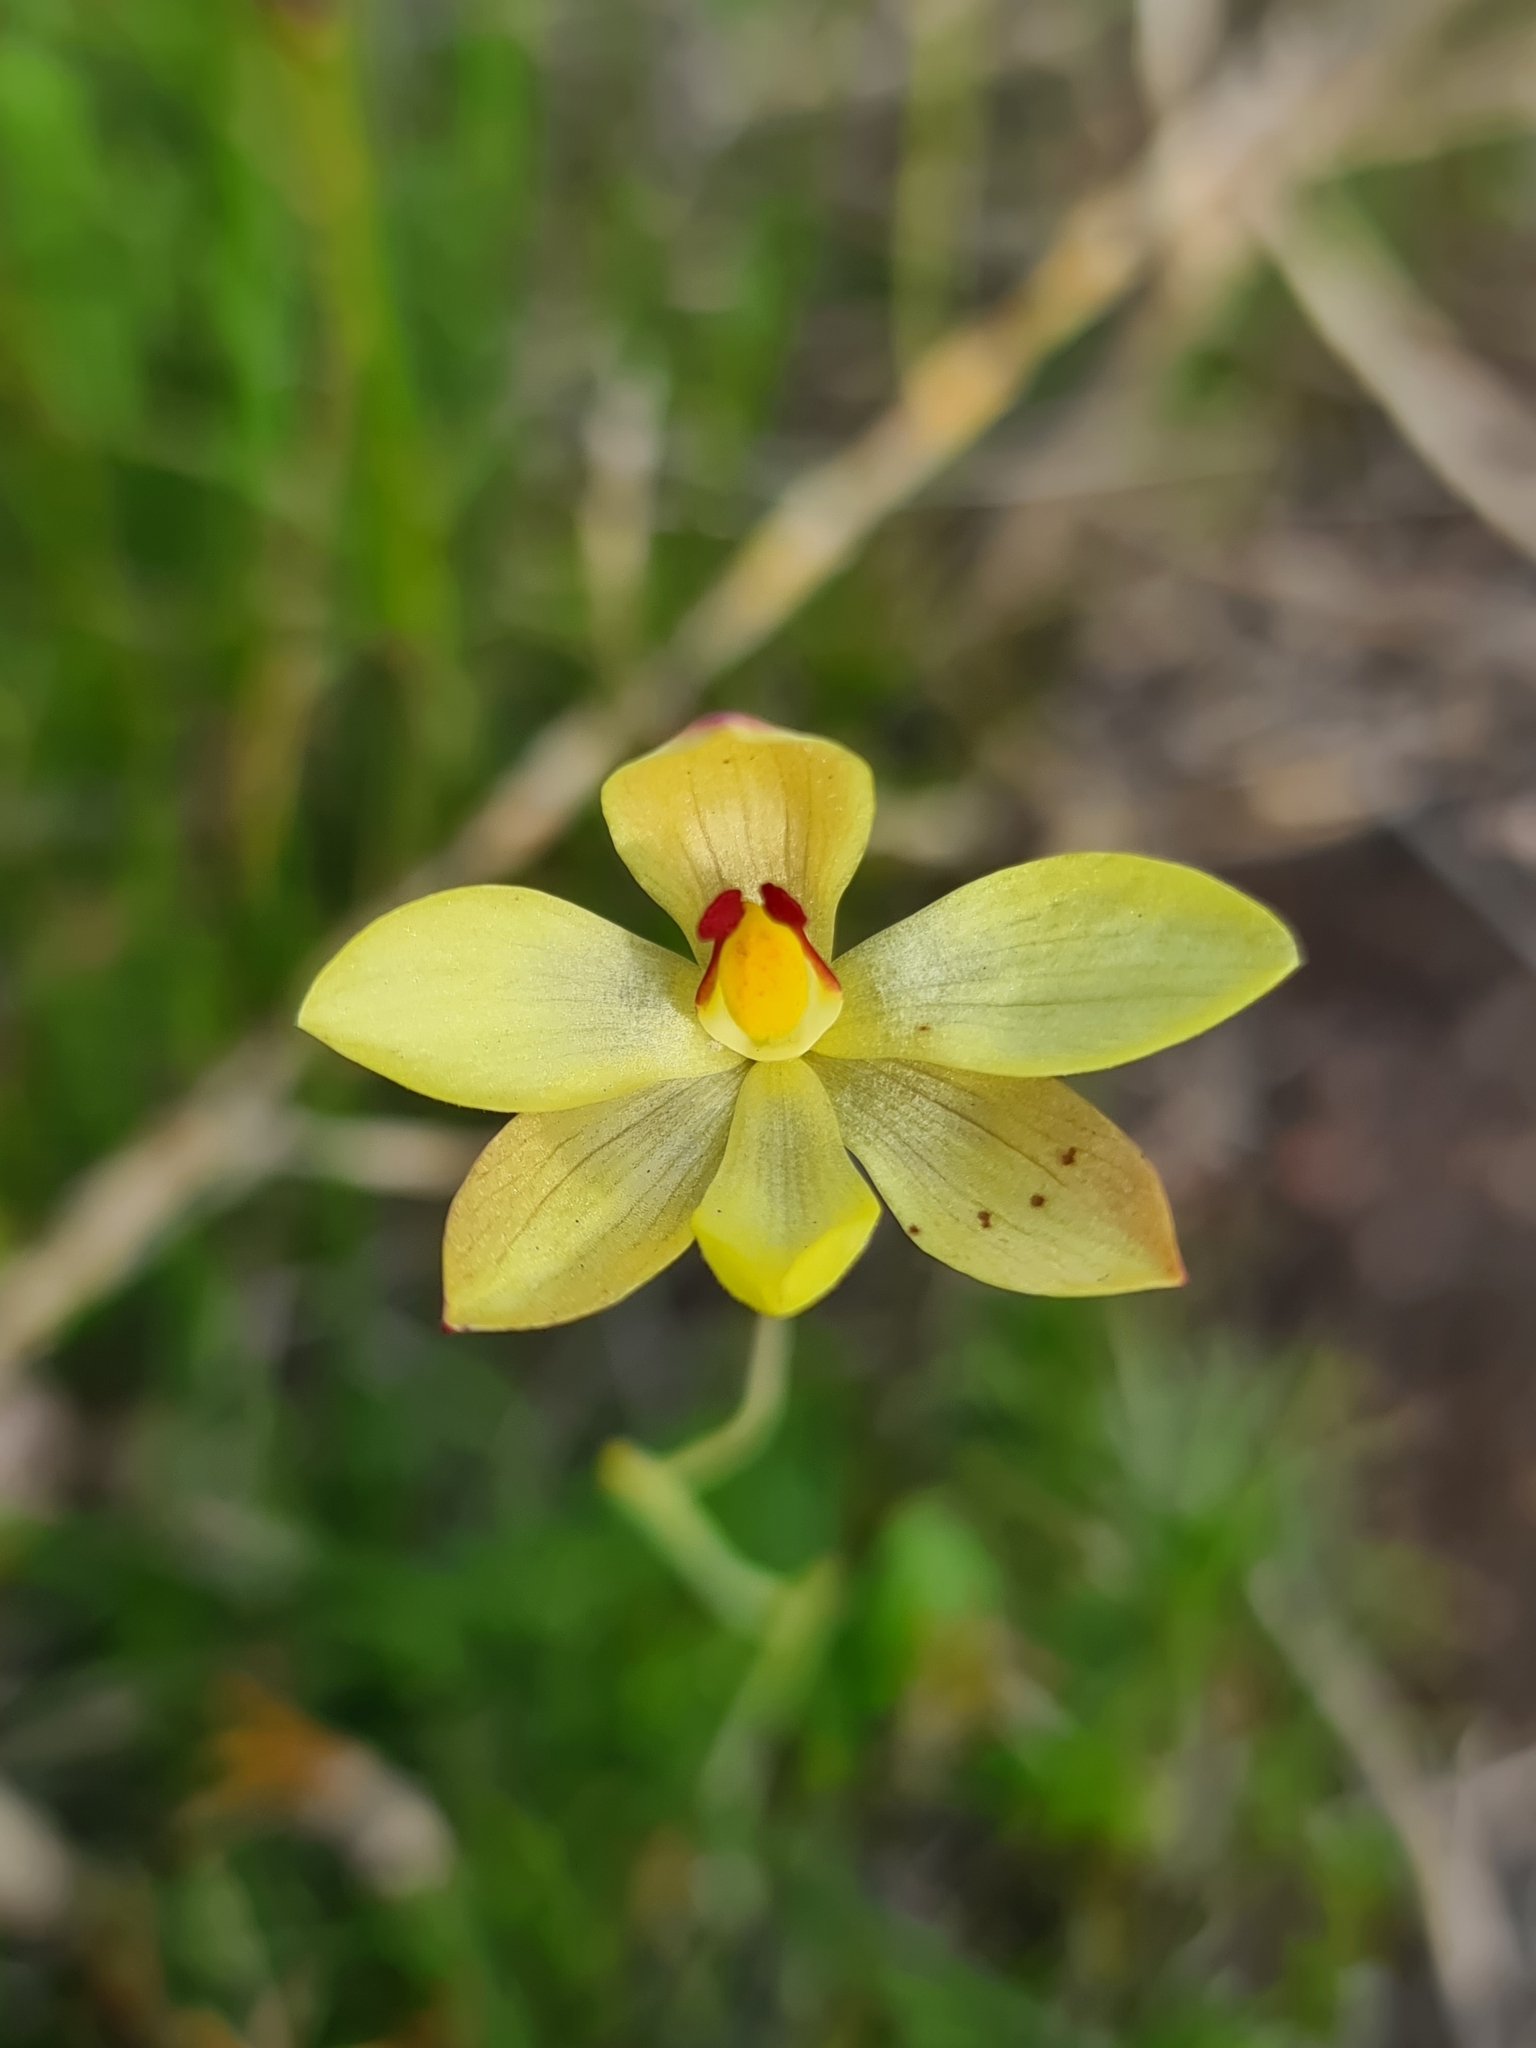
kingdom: Plantae
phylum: Tracheophyta
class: Liliopsida
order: Asparagales
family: Orchidaceae
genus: Thelymitra
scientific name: Thelymitra antennifera
